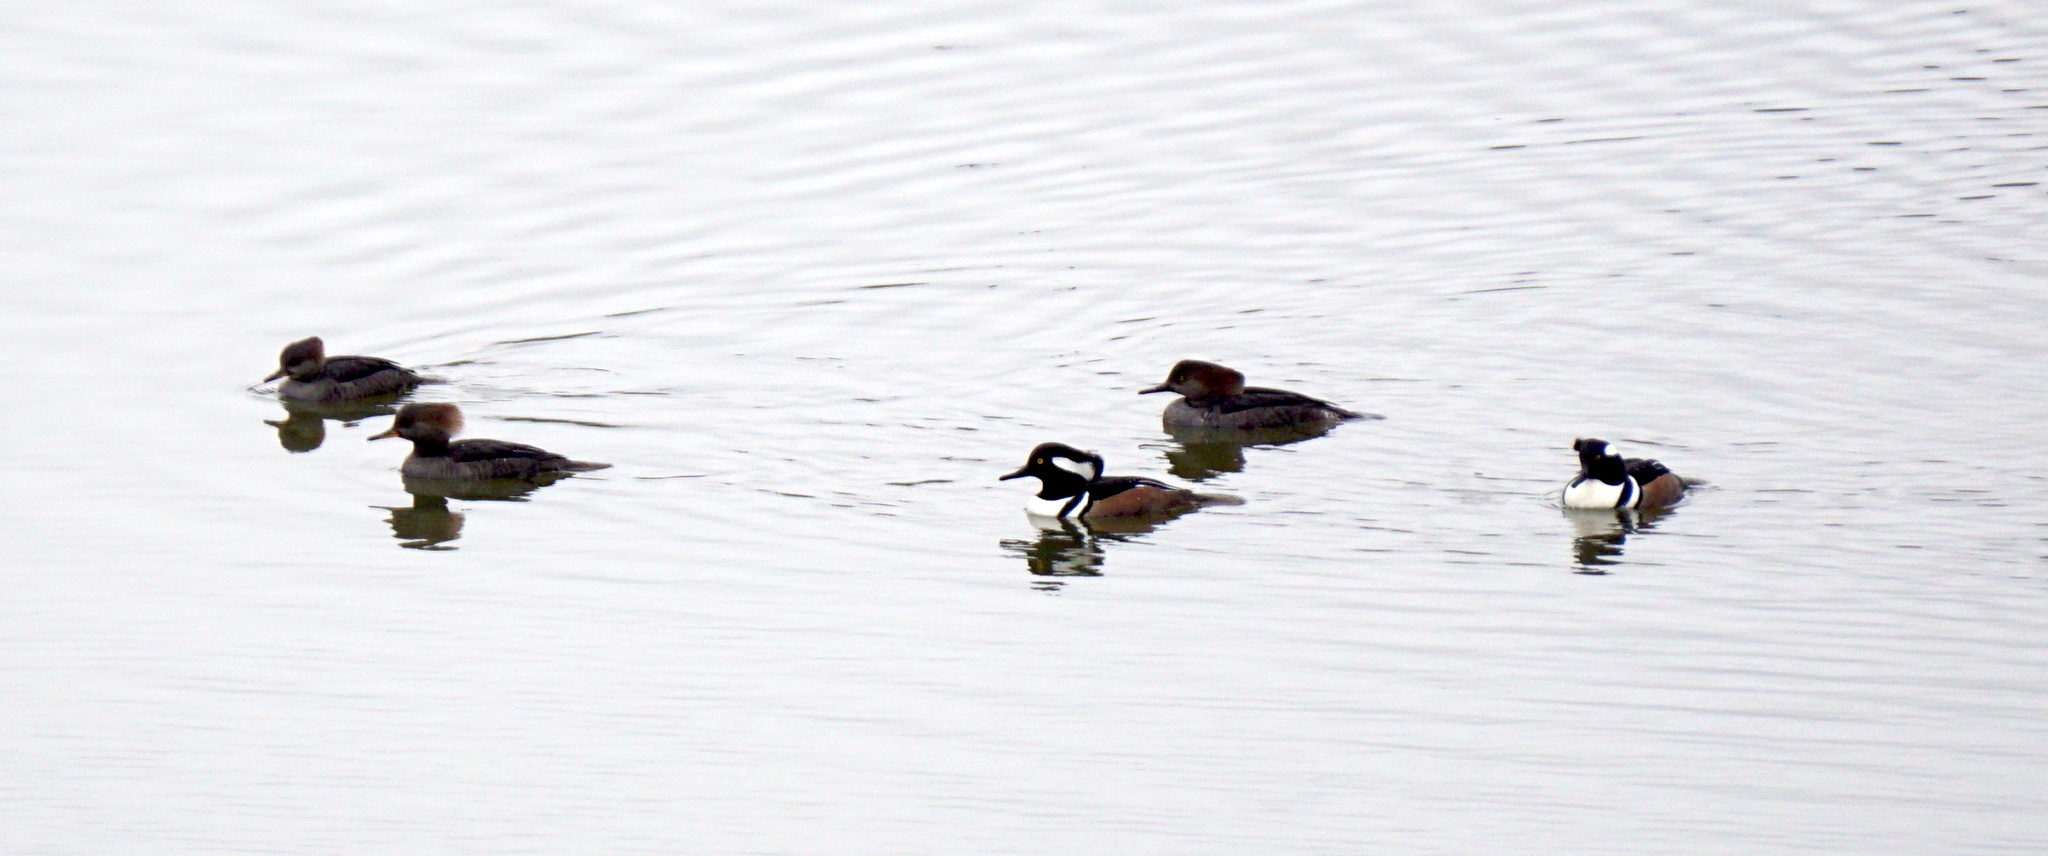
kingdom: Animalia
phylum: Chordata
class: Aves
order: Anseriformes
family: Anatidae
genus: Lophodytes
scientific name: Lophodytes cucullatus
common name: Hooded merganser
